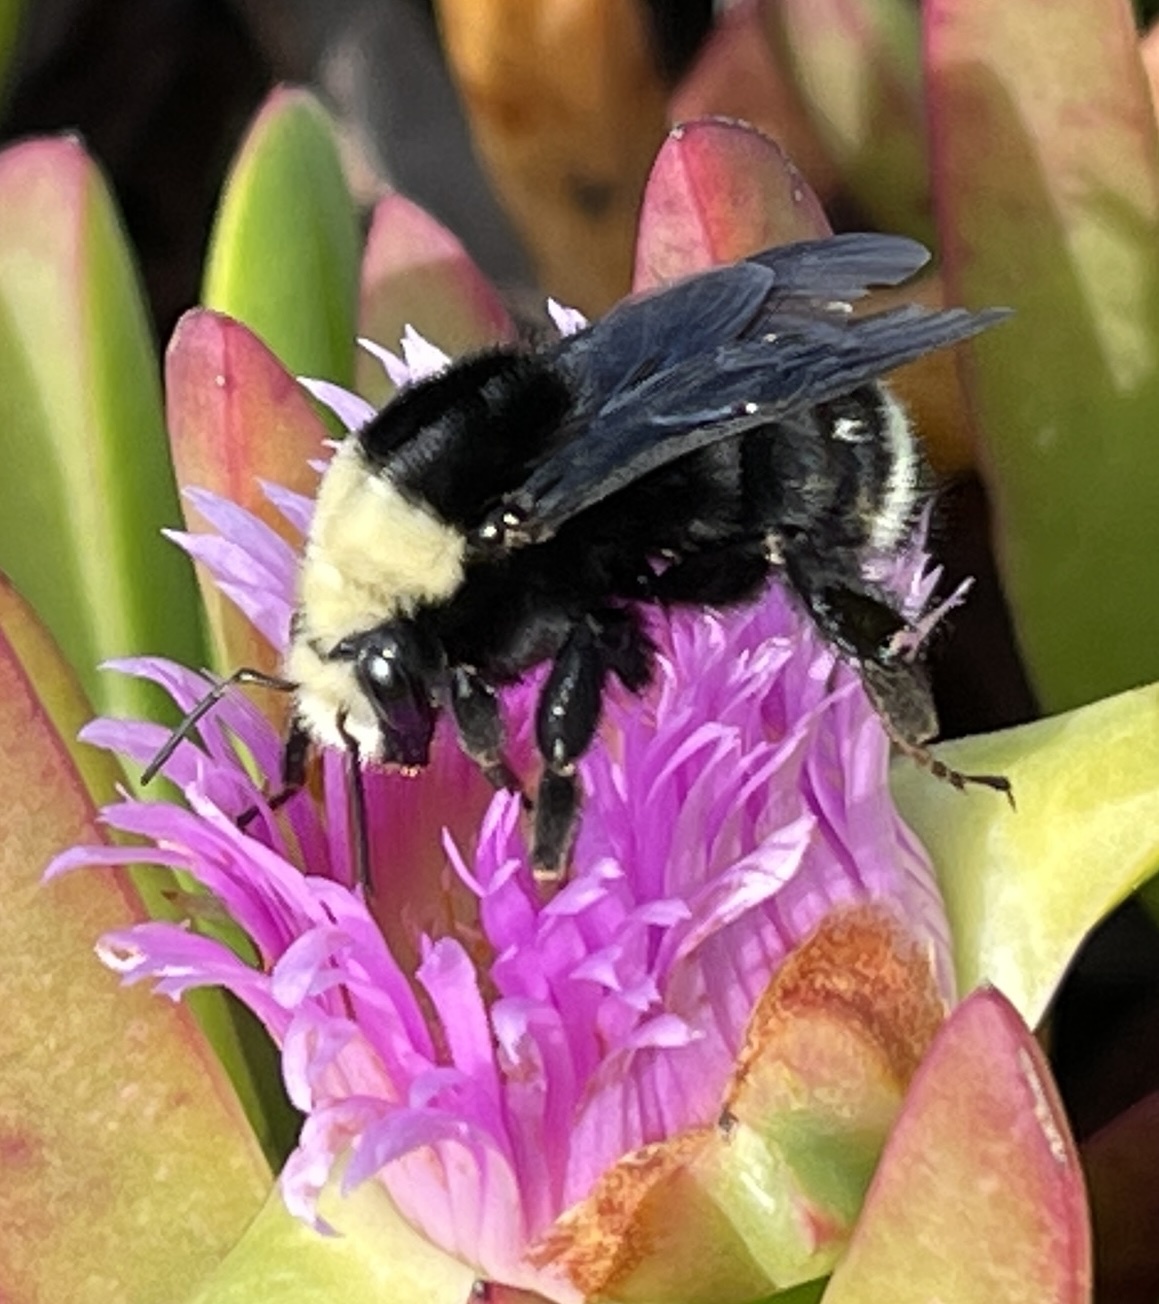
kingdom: Animalia
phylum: Arthropoda
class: Insecta
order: Hymenoptera
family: Apidae
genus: Bombus
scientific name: Bombus vosnesenskii
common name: Vosnesensky bumble bee
